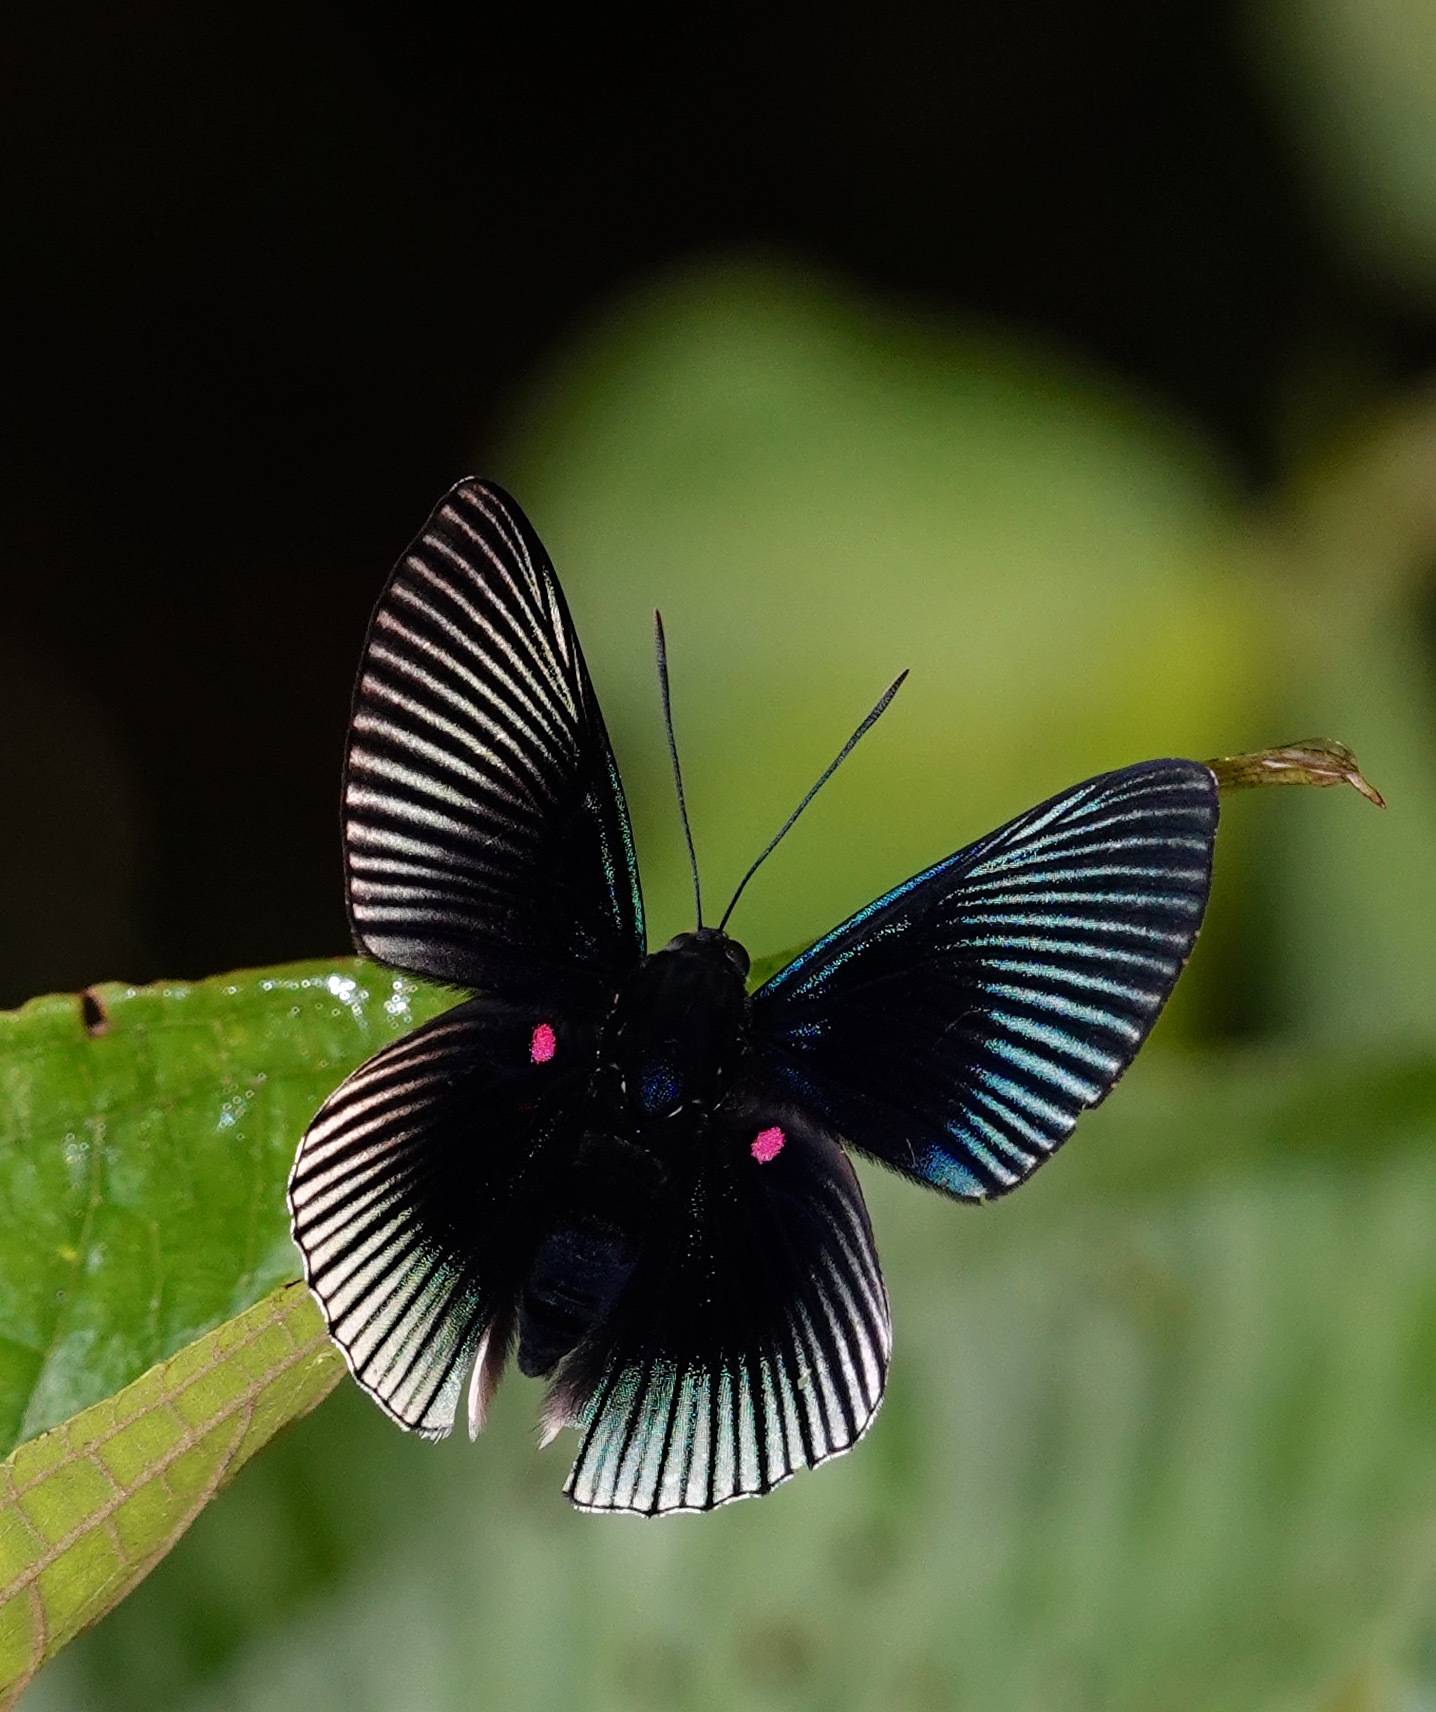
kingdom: Animalia
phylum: Arthropoda
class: Insecta
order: Lepidoptera
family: Riodinidae
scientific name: Riodinidae
